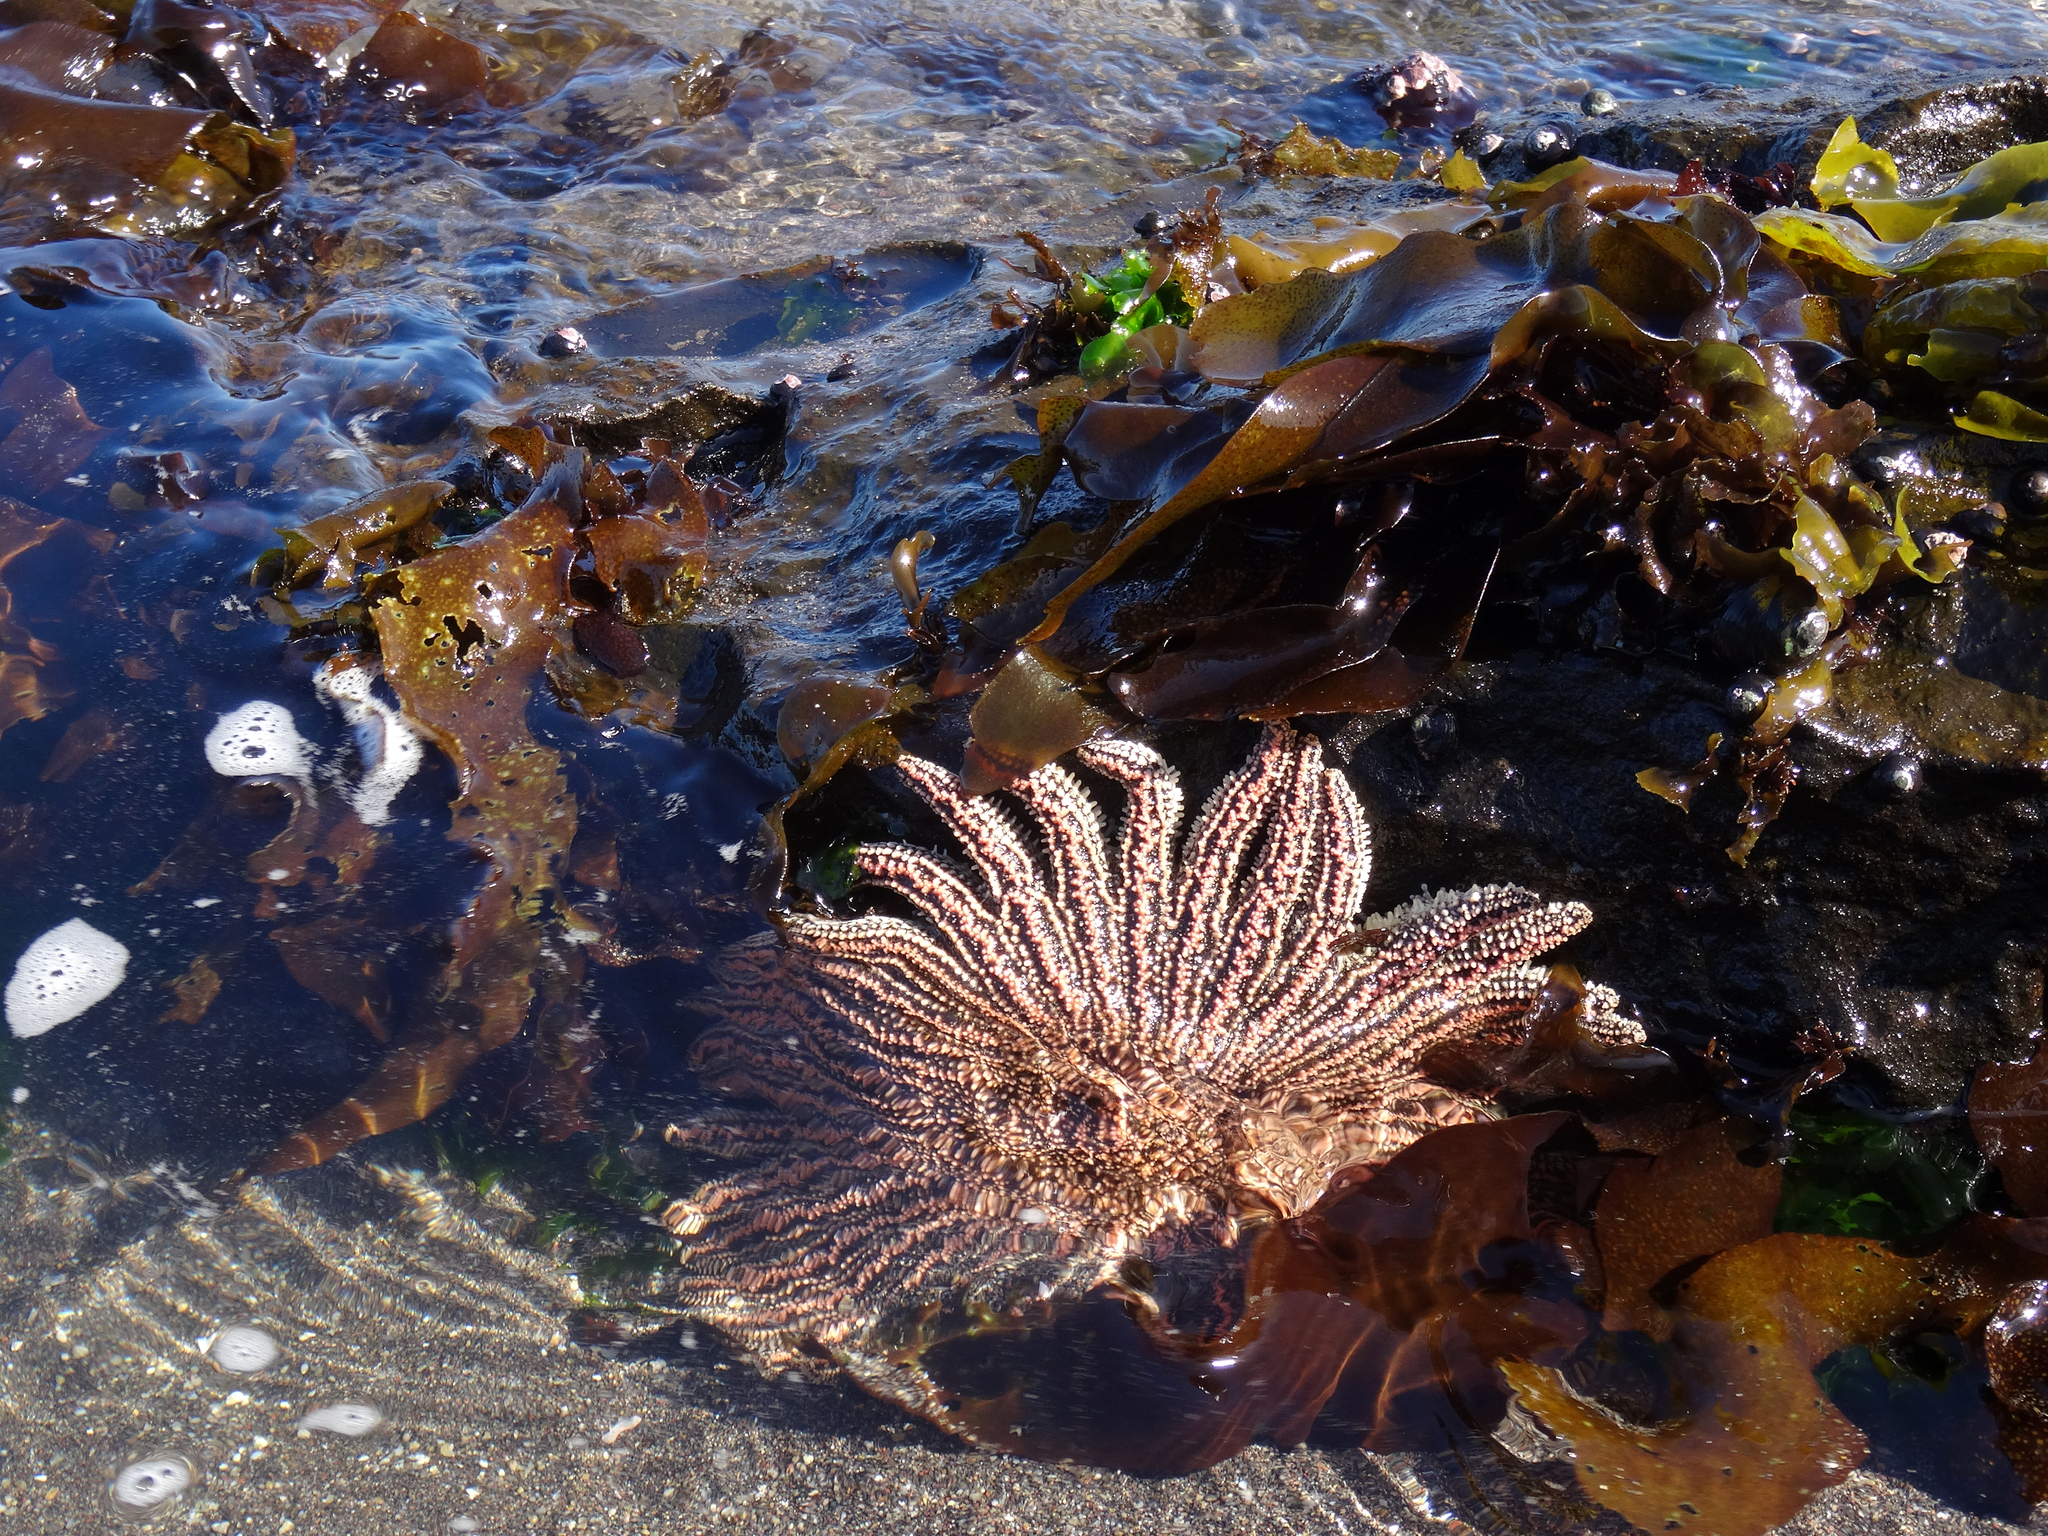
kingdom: Animalia
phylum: Echinodermata
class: Asteroidea
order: Forcipulatida
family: Heliasteridae
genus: Heliaster
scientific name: Heliaster helianthus
